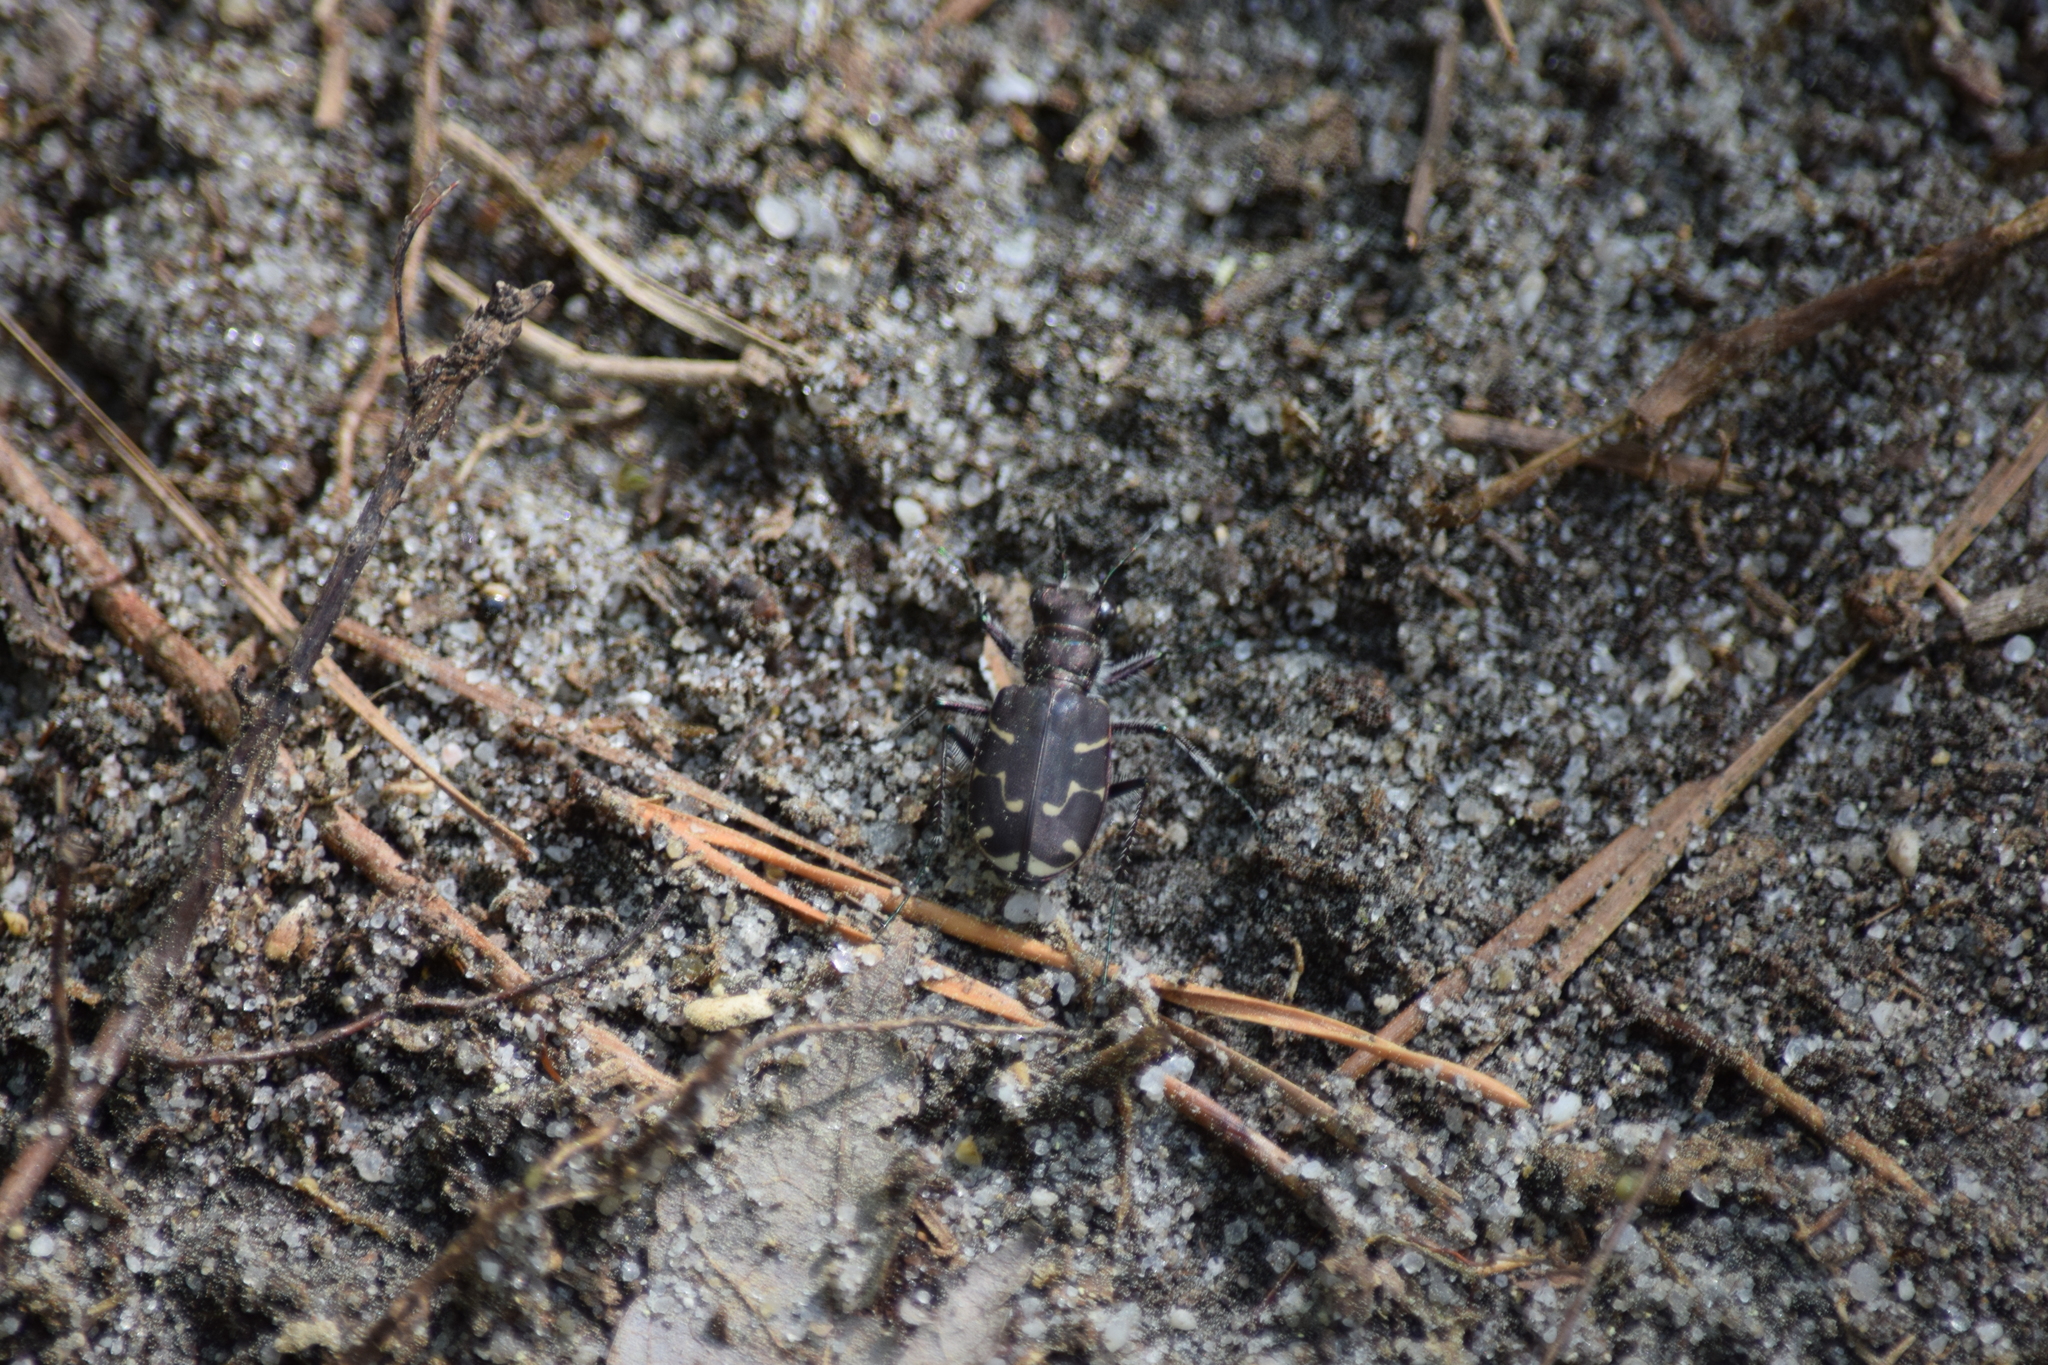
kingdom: Animalia
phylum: Arthropoda
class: Insecta
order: Coleoptera
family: Carabidae
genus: Cicindela
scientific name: Cicindela tranquebarica
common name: Oblique-lined tiger beetle
